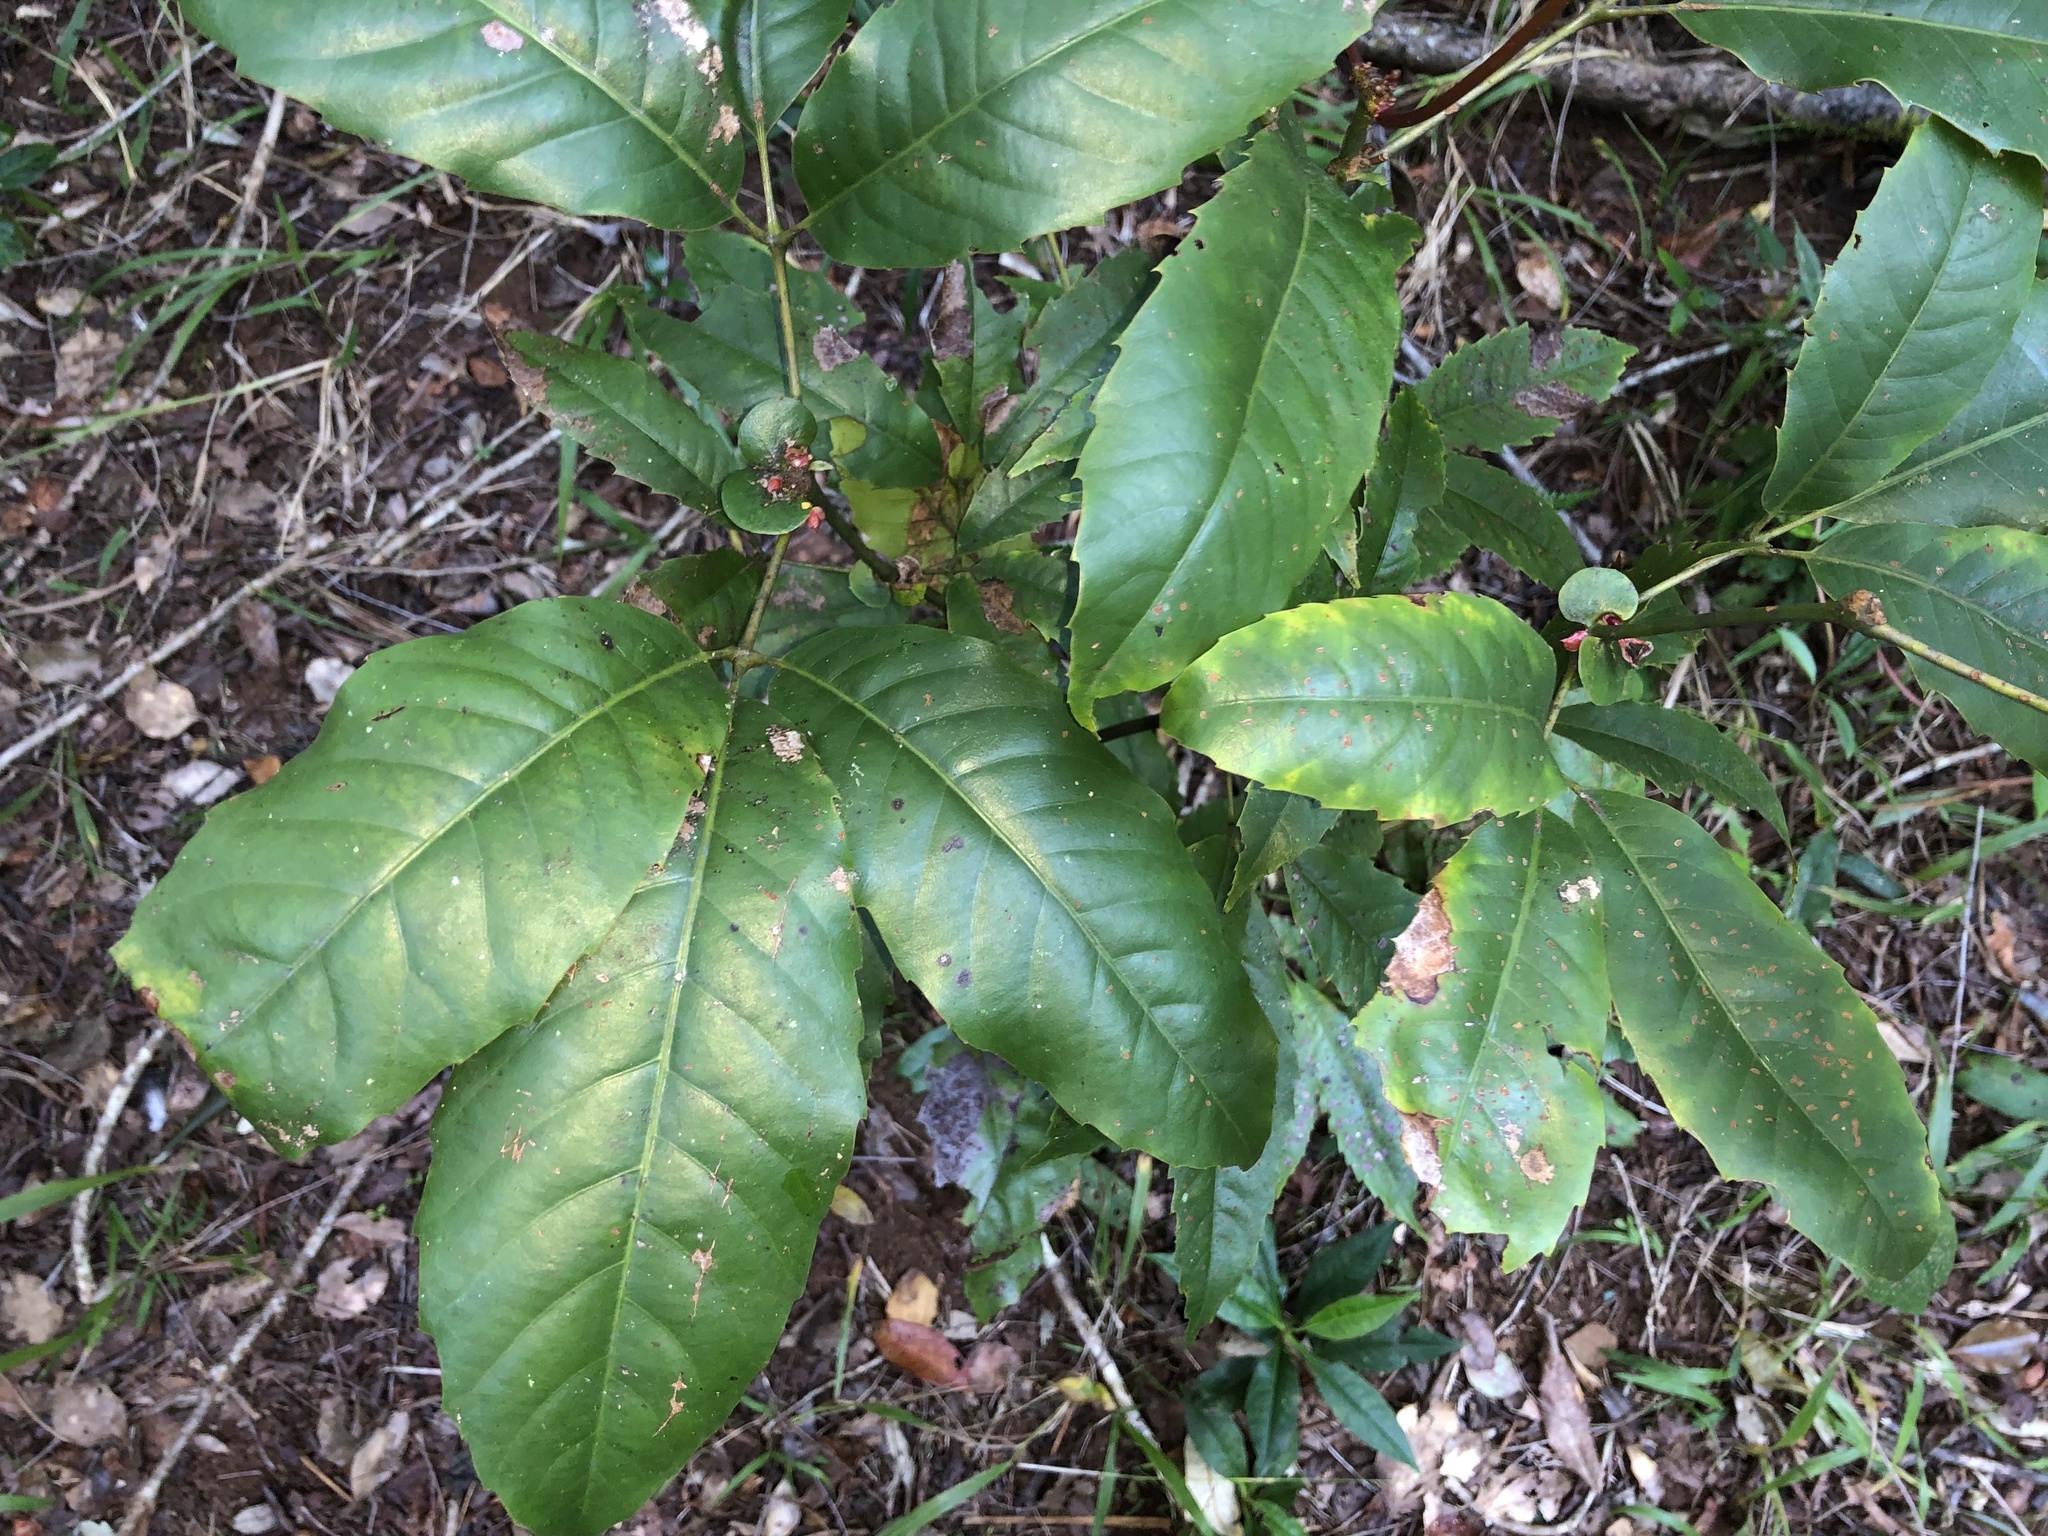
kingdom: Plantae
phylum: Tracheophyta
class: Magnoliopsida
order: Oxalidales
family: Cunoniaceae
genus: Karrabina
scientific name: Karrabina benthamiana
